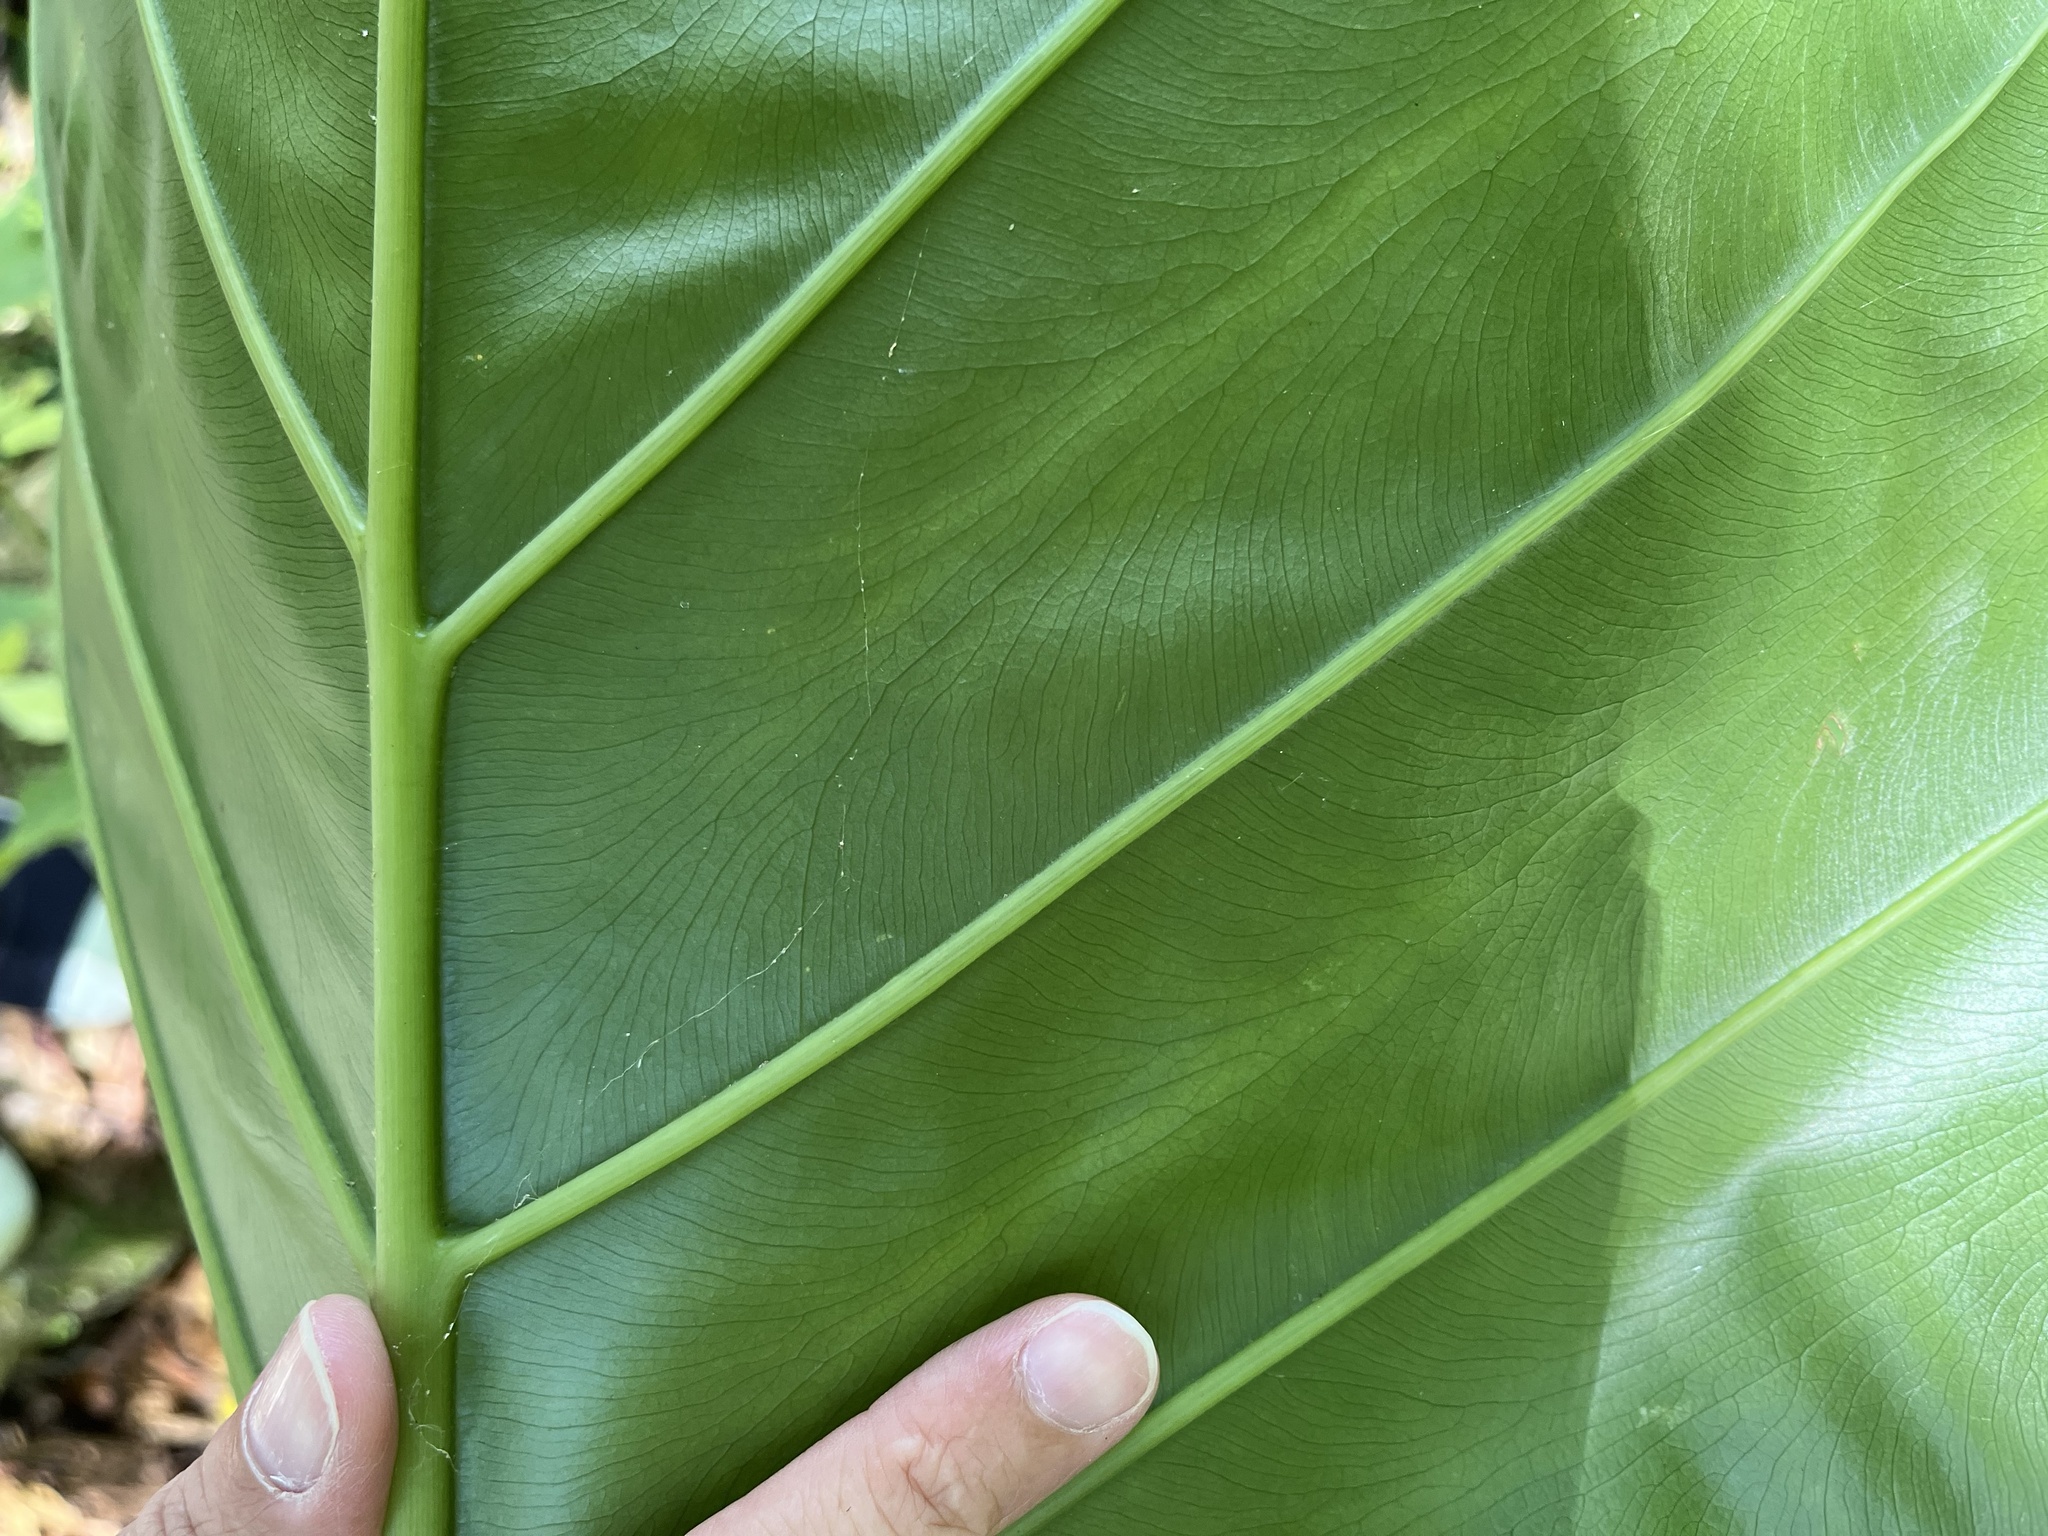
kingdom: Plantae
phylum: Tracheophyta
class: Liliopsida
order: Alismatales
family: Araceae
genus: Alocasia
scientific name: Alocasia odora
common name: Asian taro
